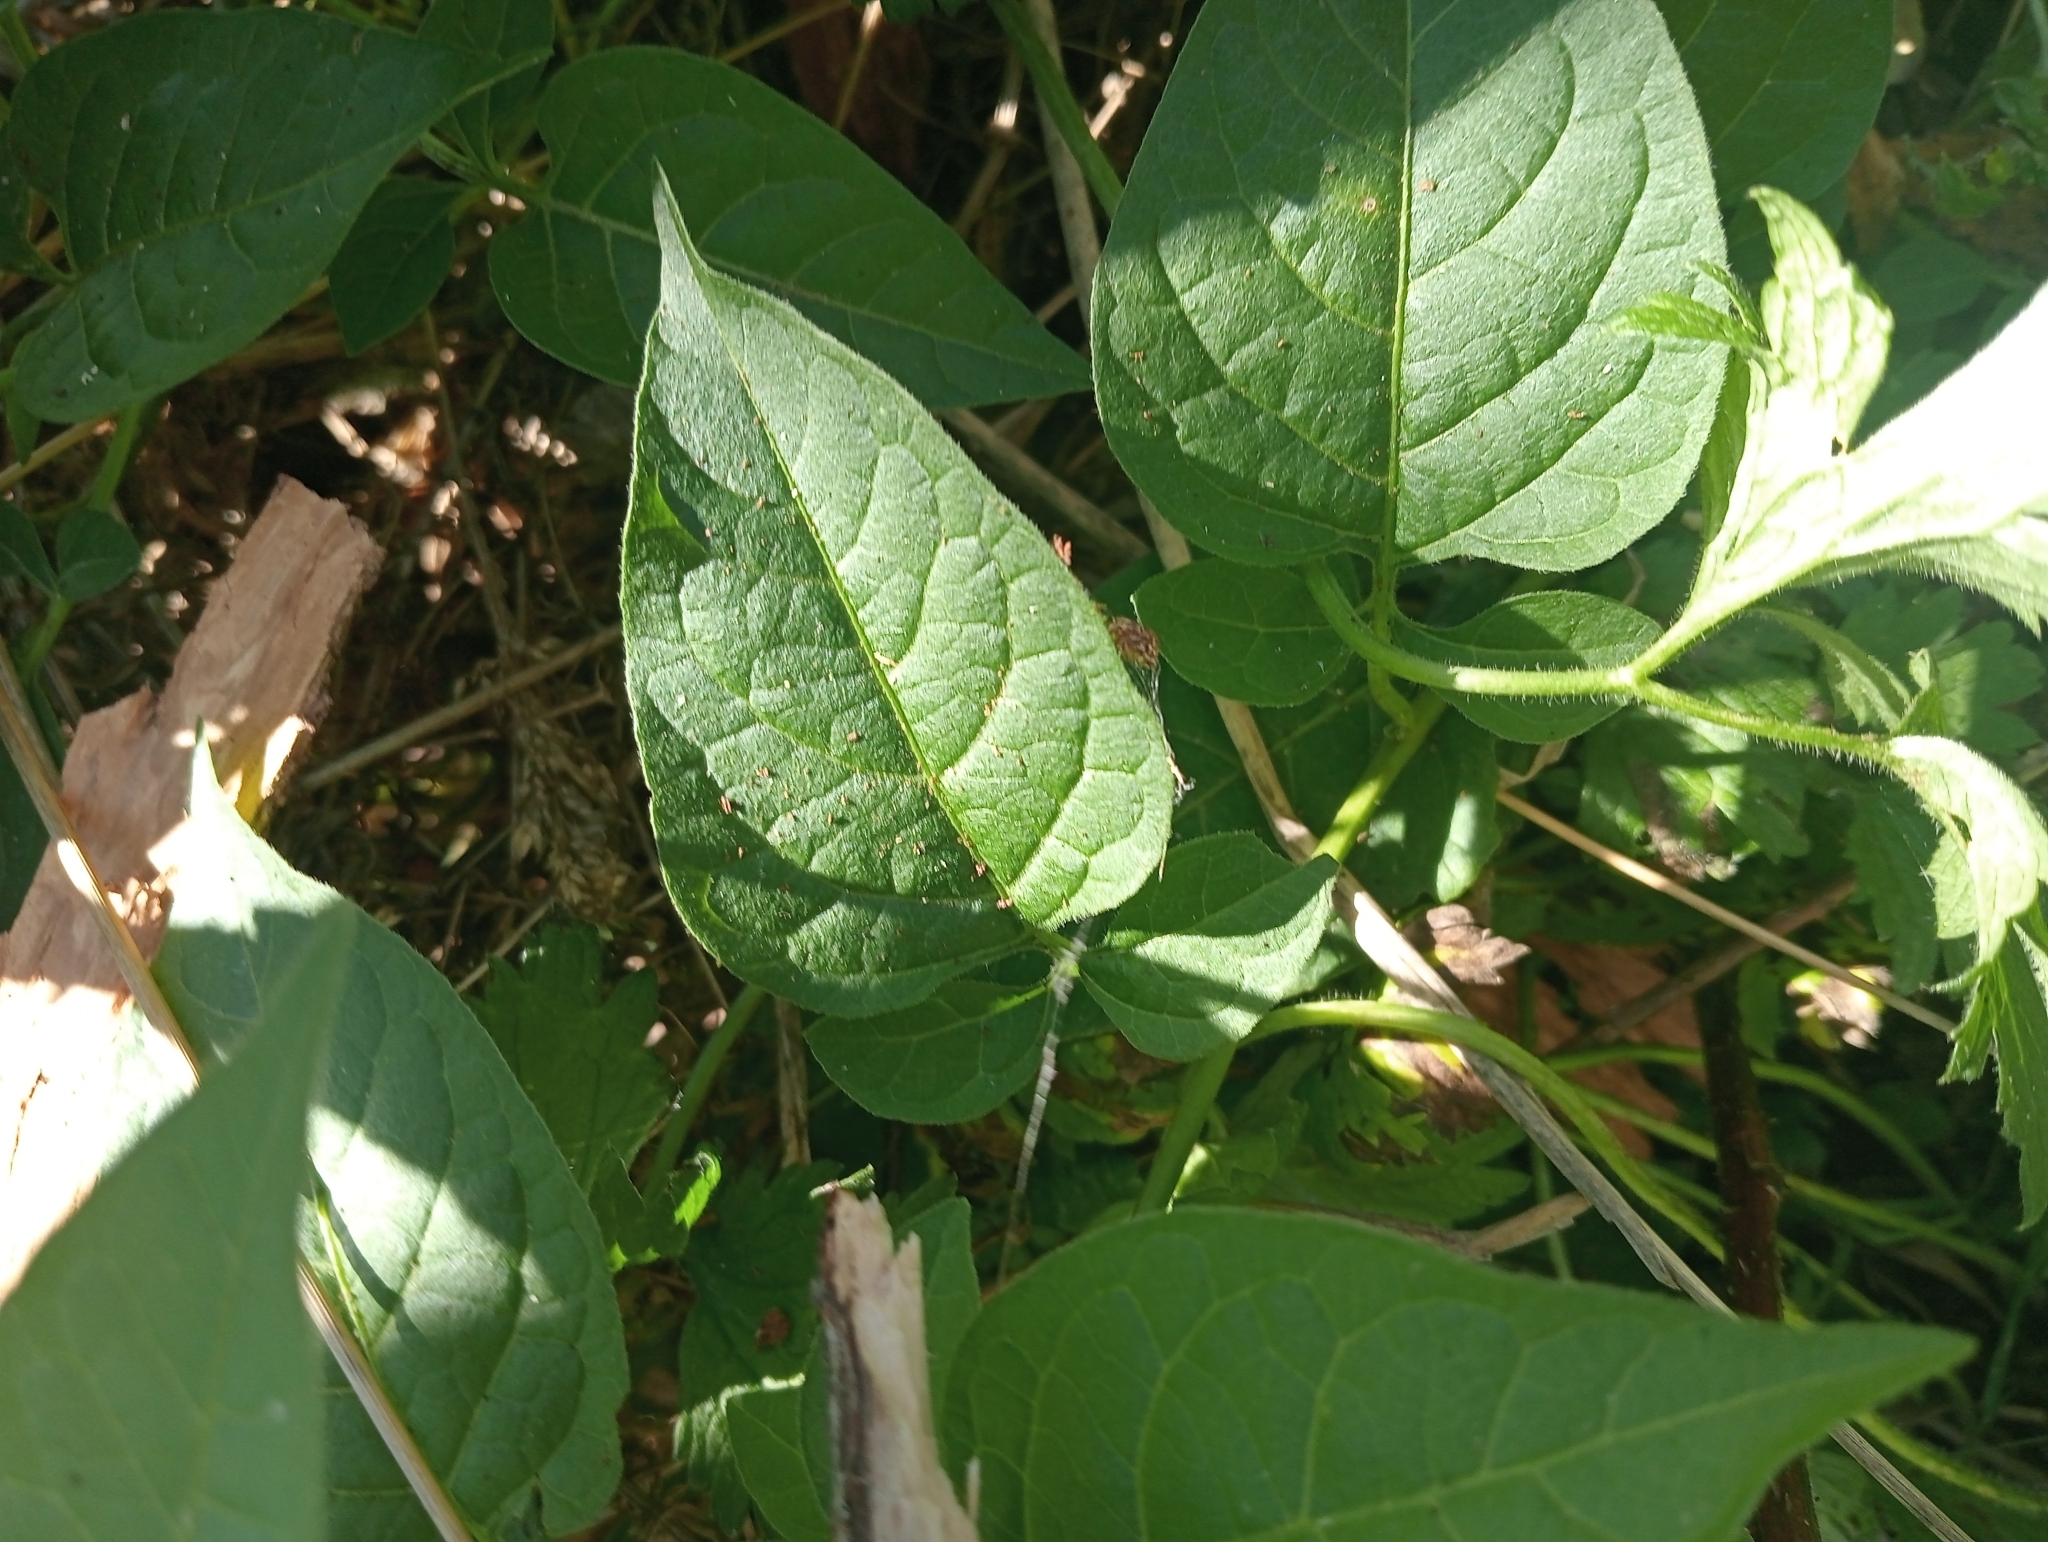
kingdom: Plantae
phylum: Tracheophyta
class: Magnoliopsida
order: Solanales
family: Solanaceae
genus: Solanum
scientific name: Solanum dulcamara
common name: Climbing nightshade
